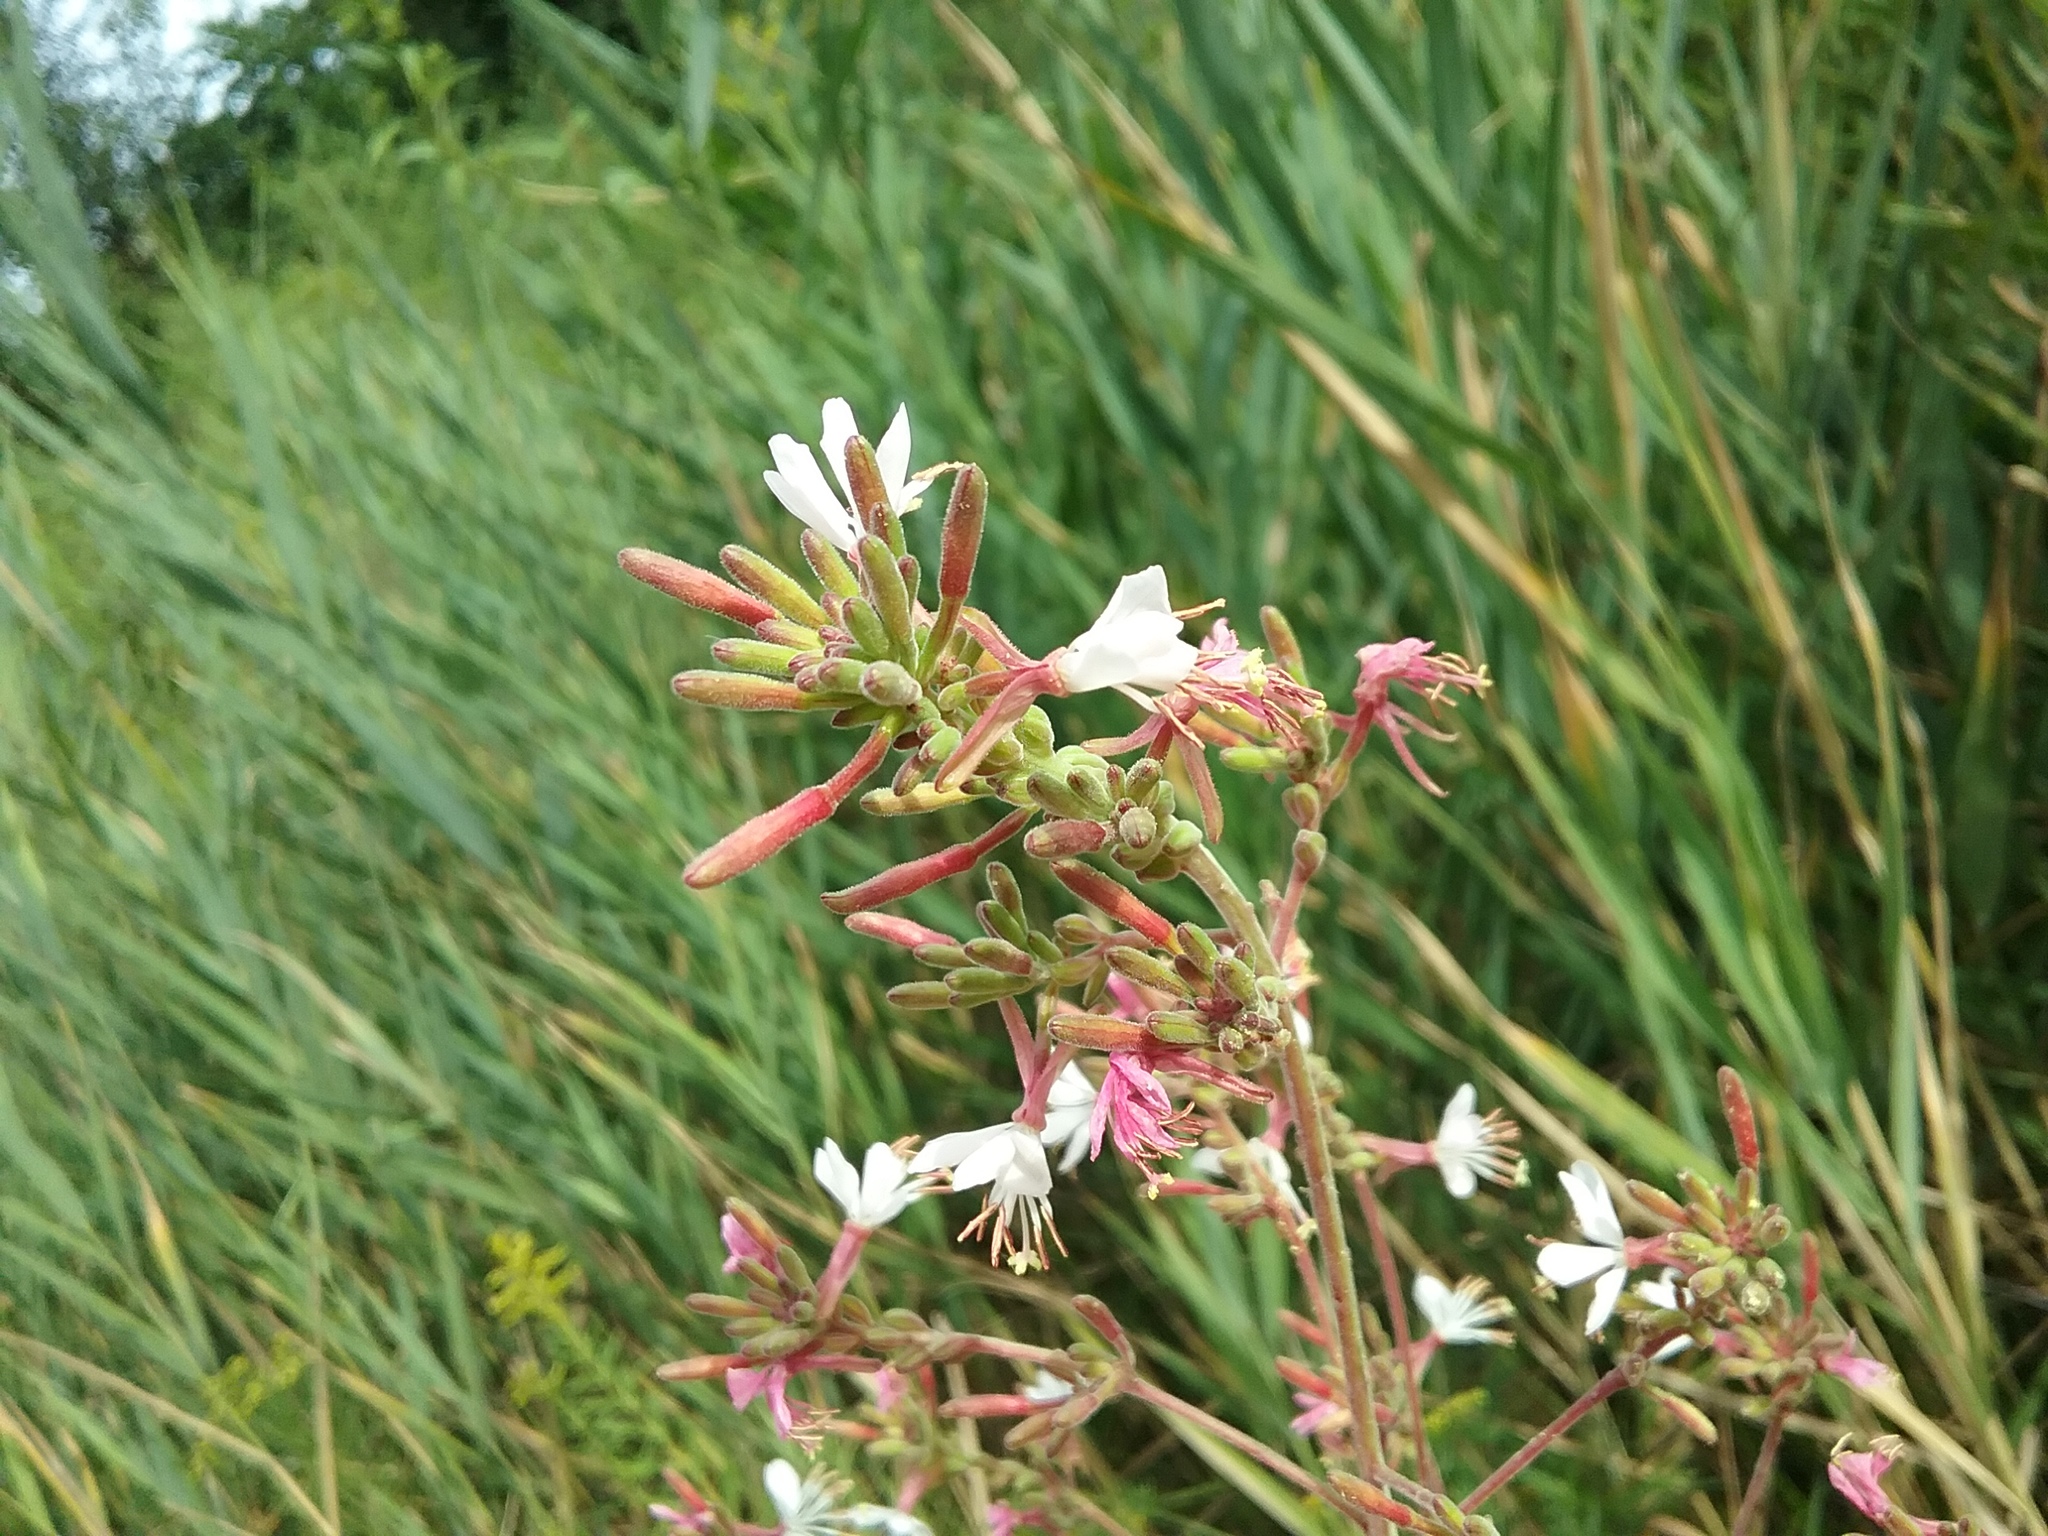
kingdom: Plantae
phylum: Tracheophyta
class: Magnoliopsida
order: Myrtales
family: Onagraceae
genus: Oenothera
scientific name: Oenothera gaura
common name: Biennial beeblossom
